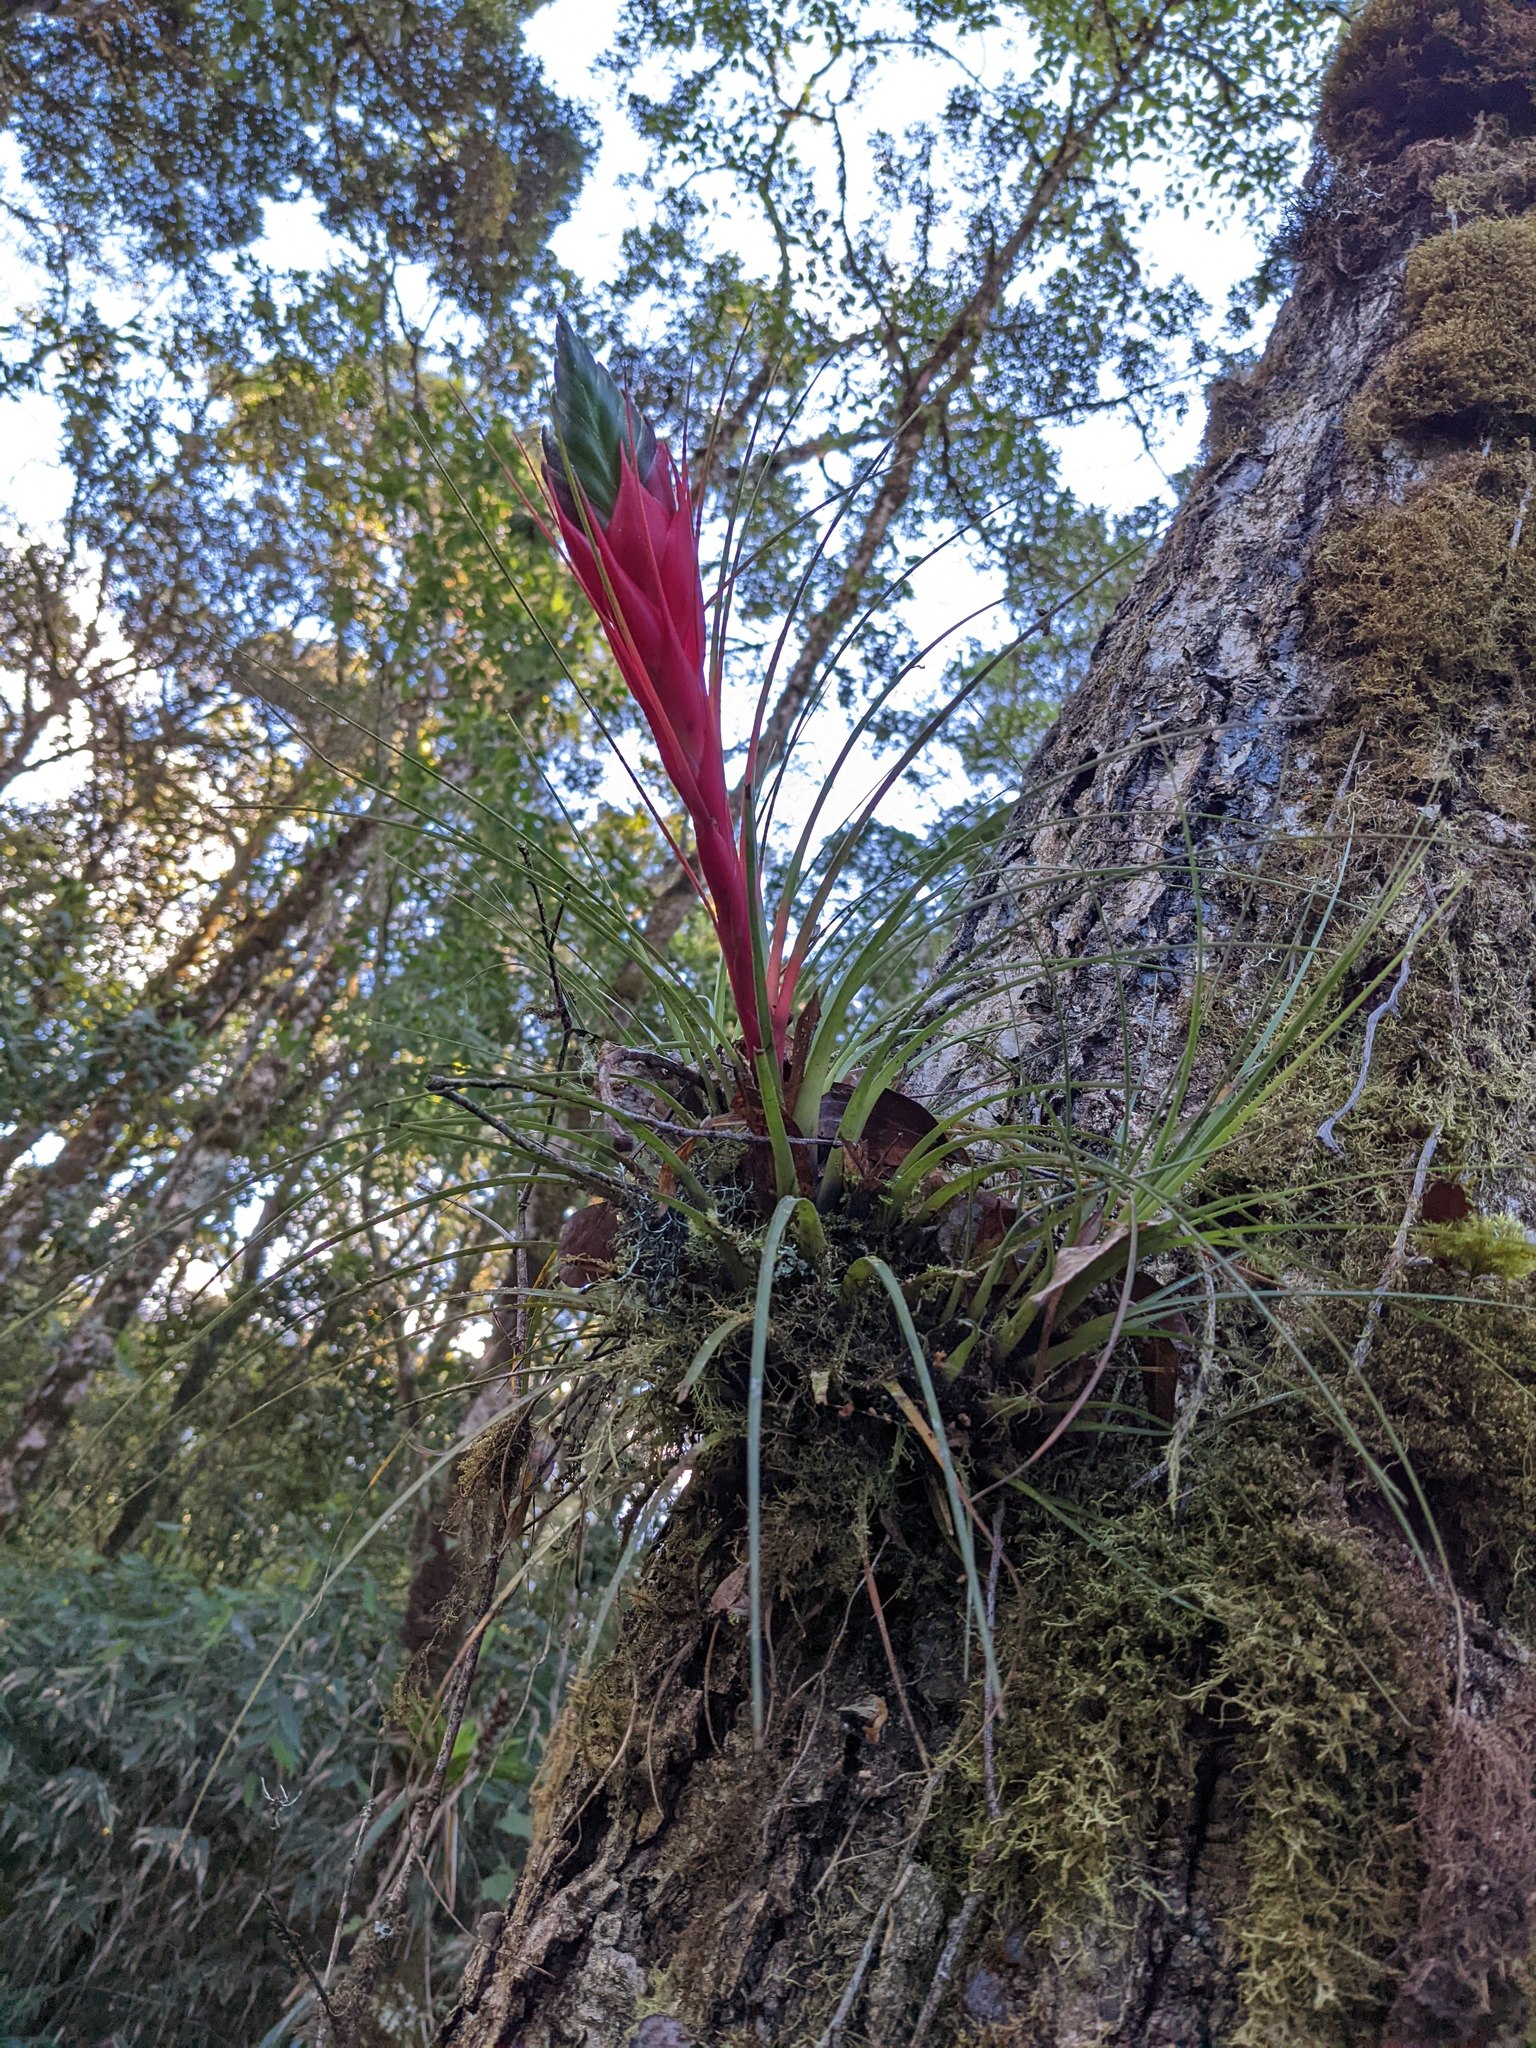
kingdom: Plantae
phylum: Tracheophyta
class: Liliopsida
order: Poales
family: Bromeliaceae
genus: Tillandsia
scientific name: Tillandsia punctulata
